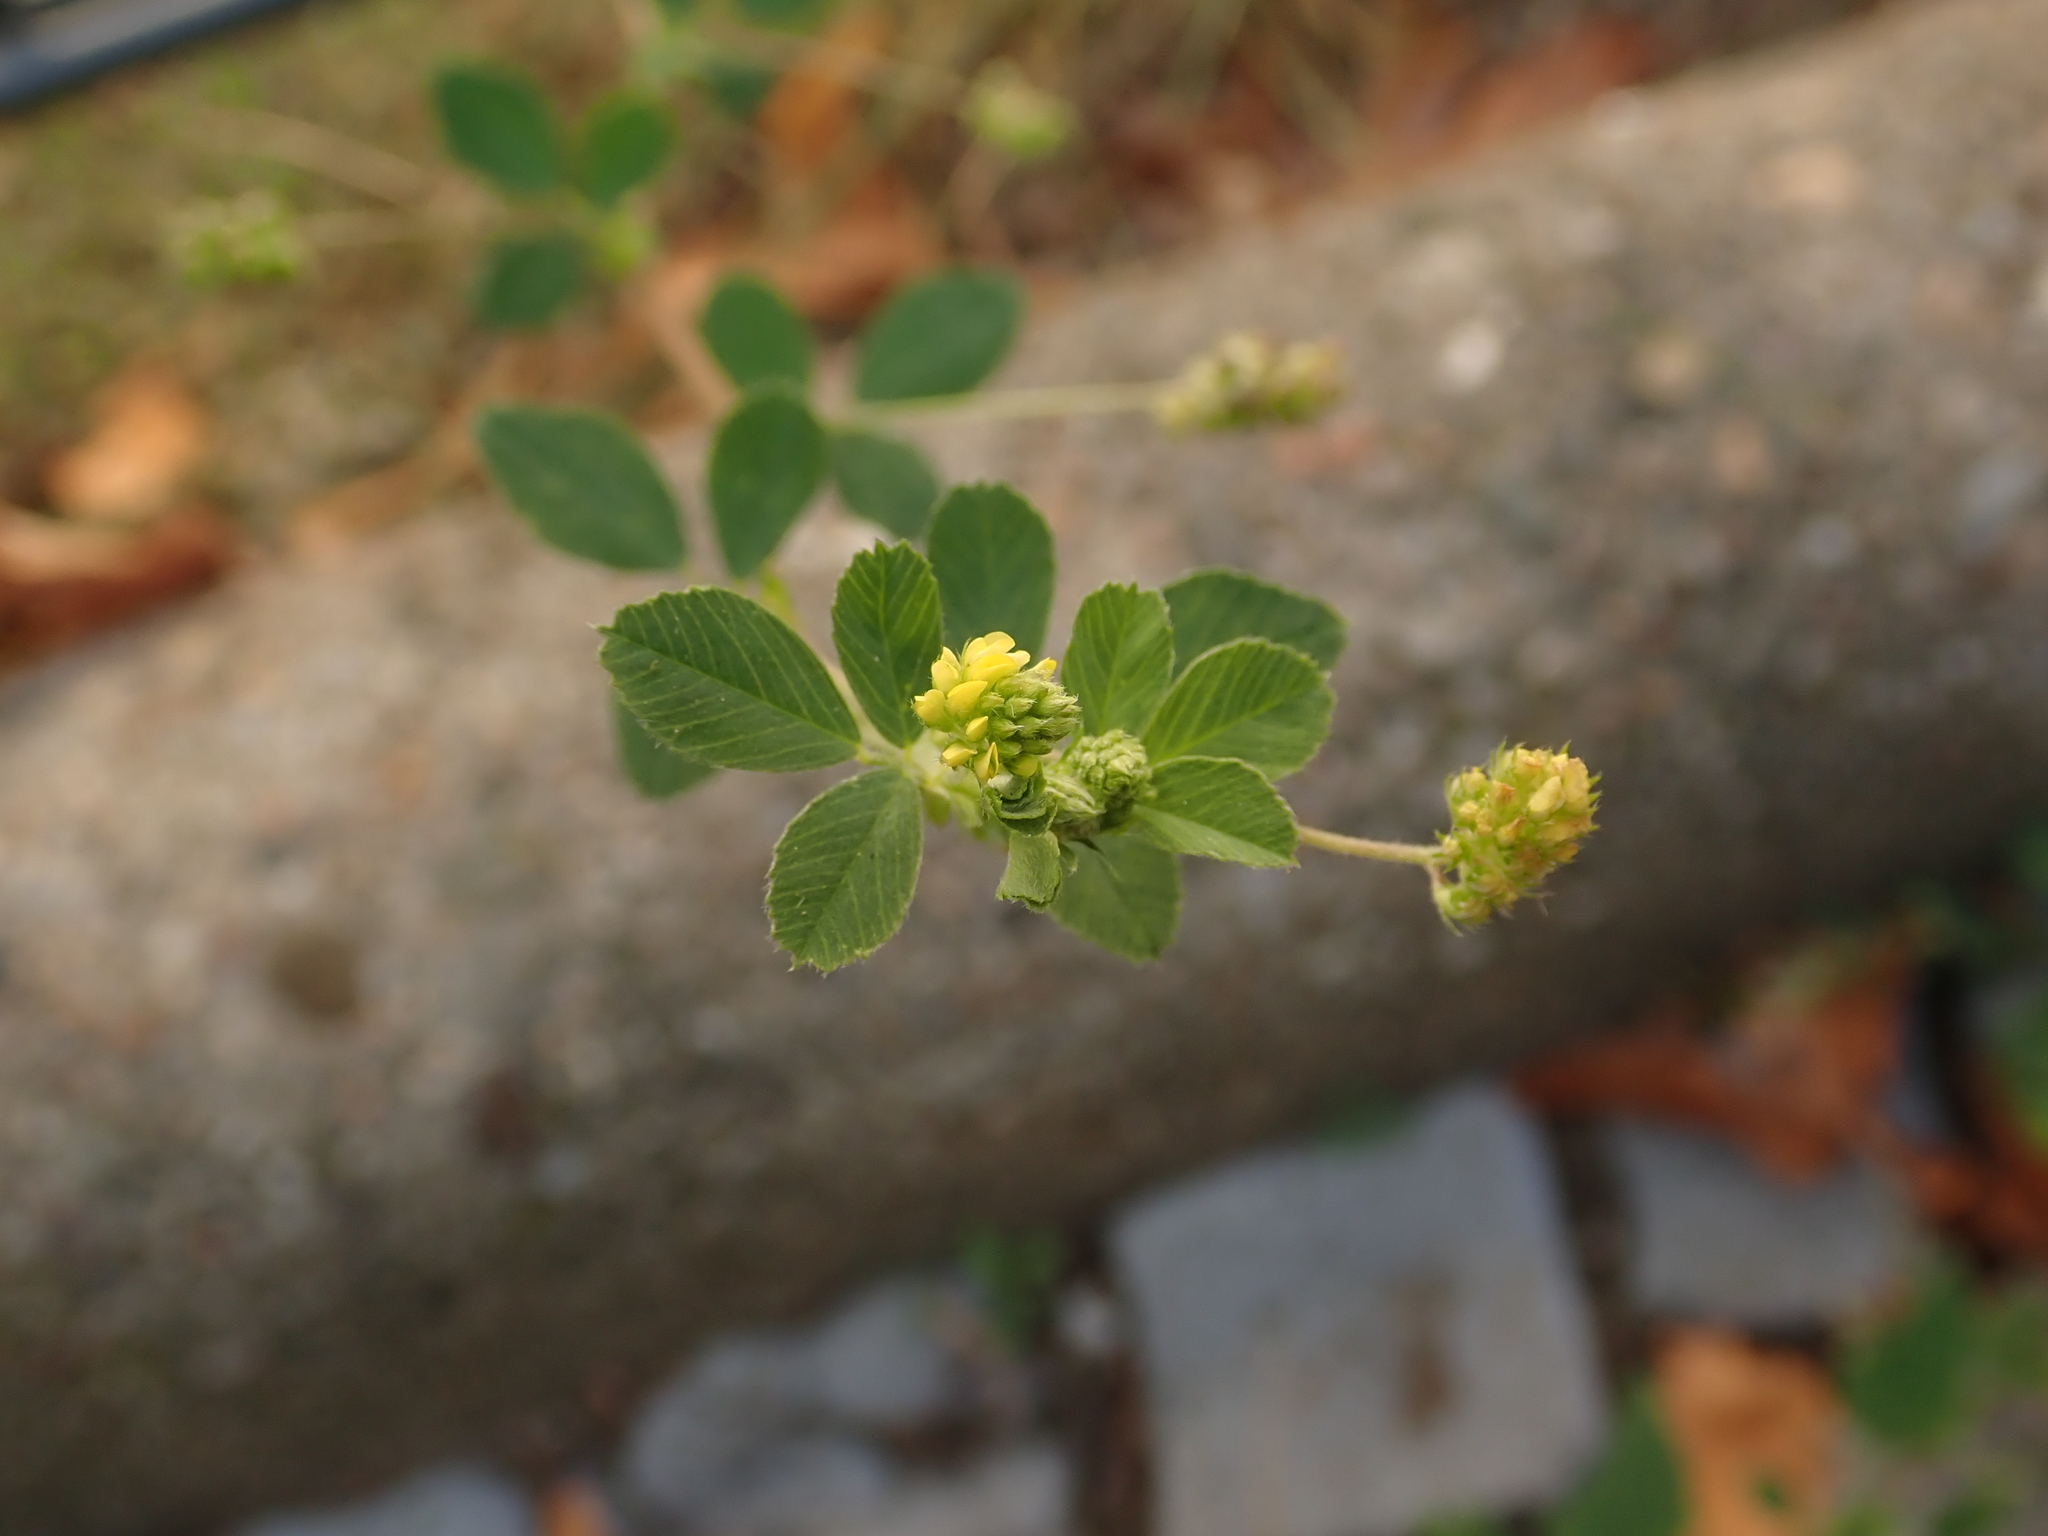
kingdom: Plantae
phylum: Tracheophyta
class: Magnoliopsida
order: Fabales
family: Fabaceae
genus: Medicago
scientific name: Medicago lupulina
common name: Black medick
